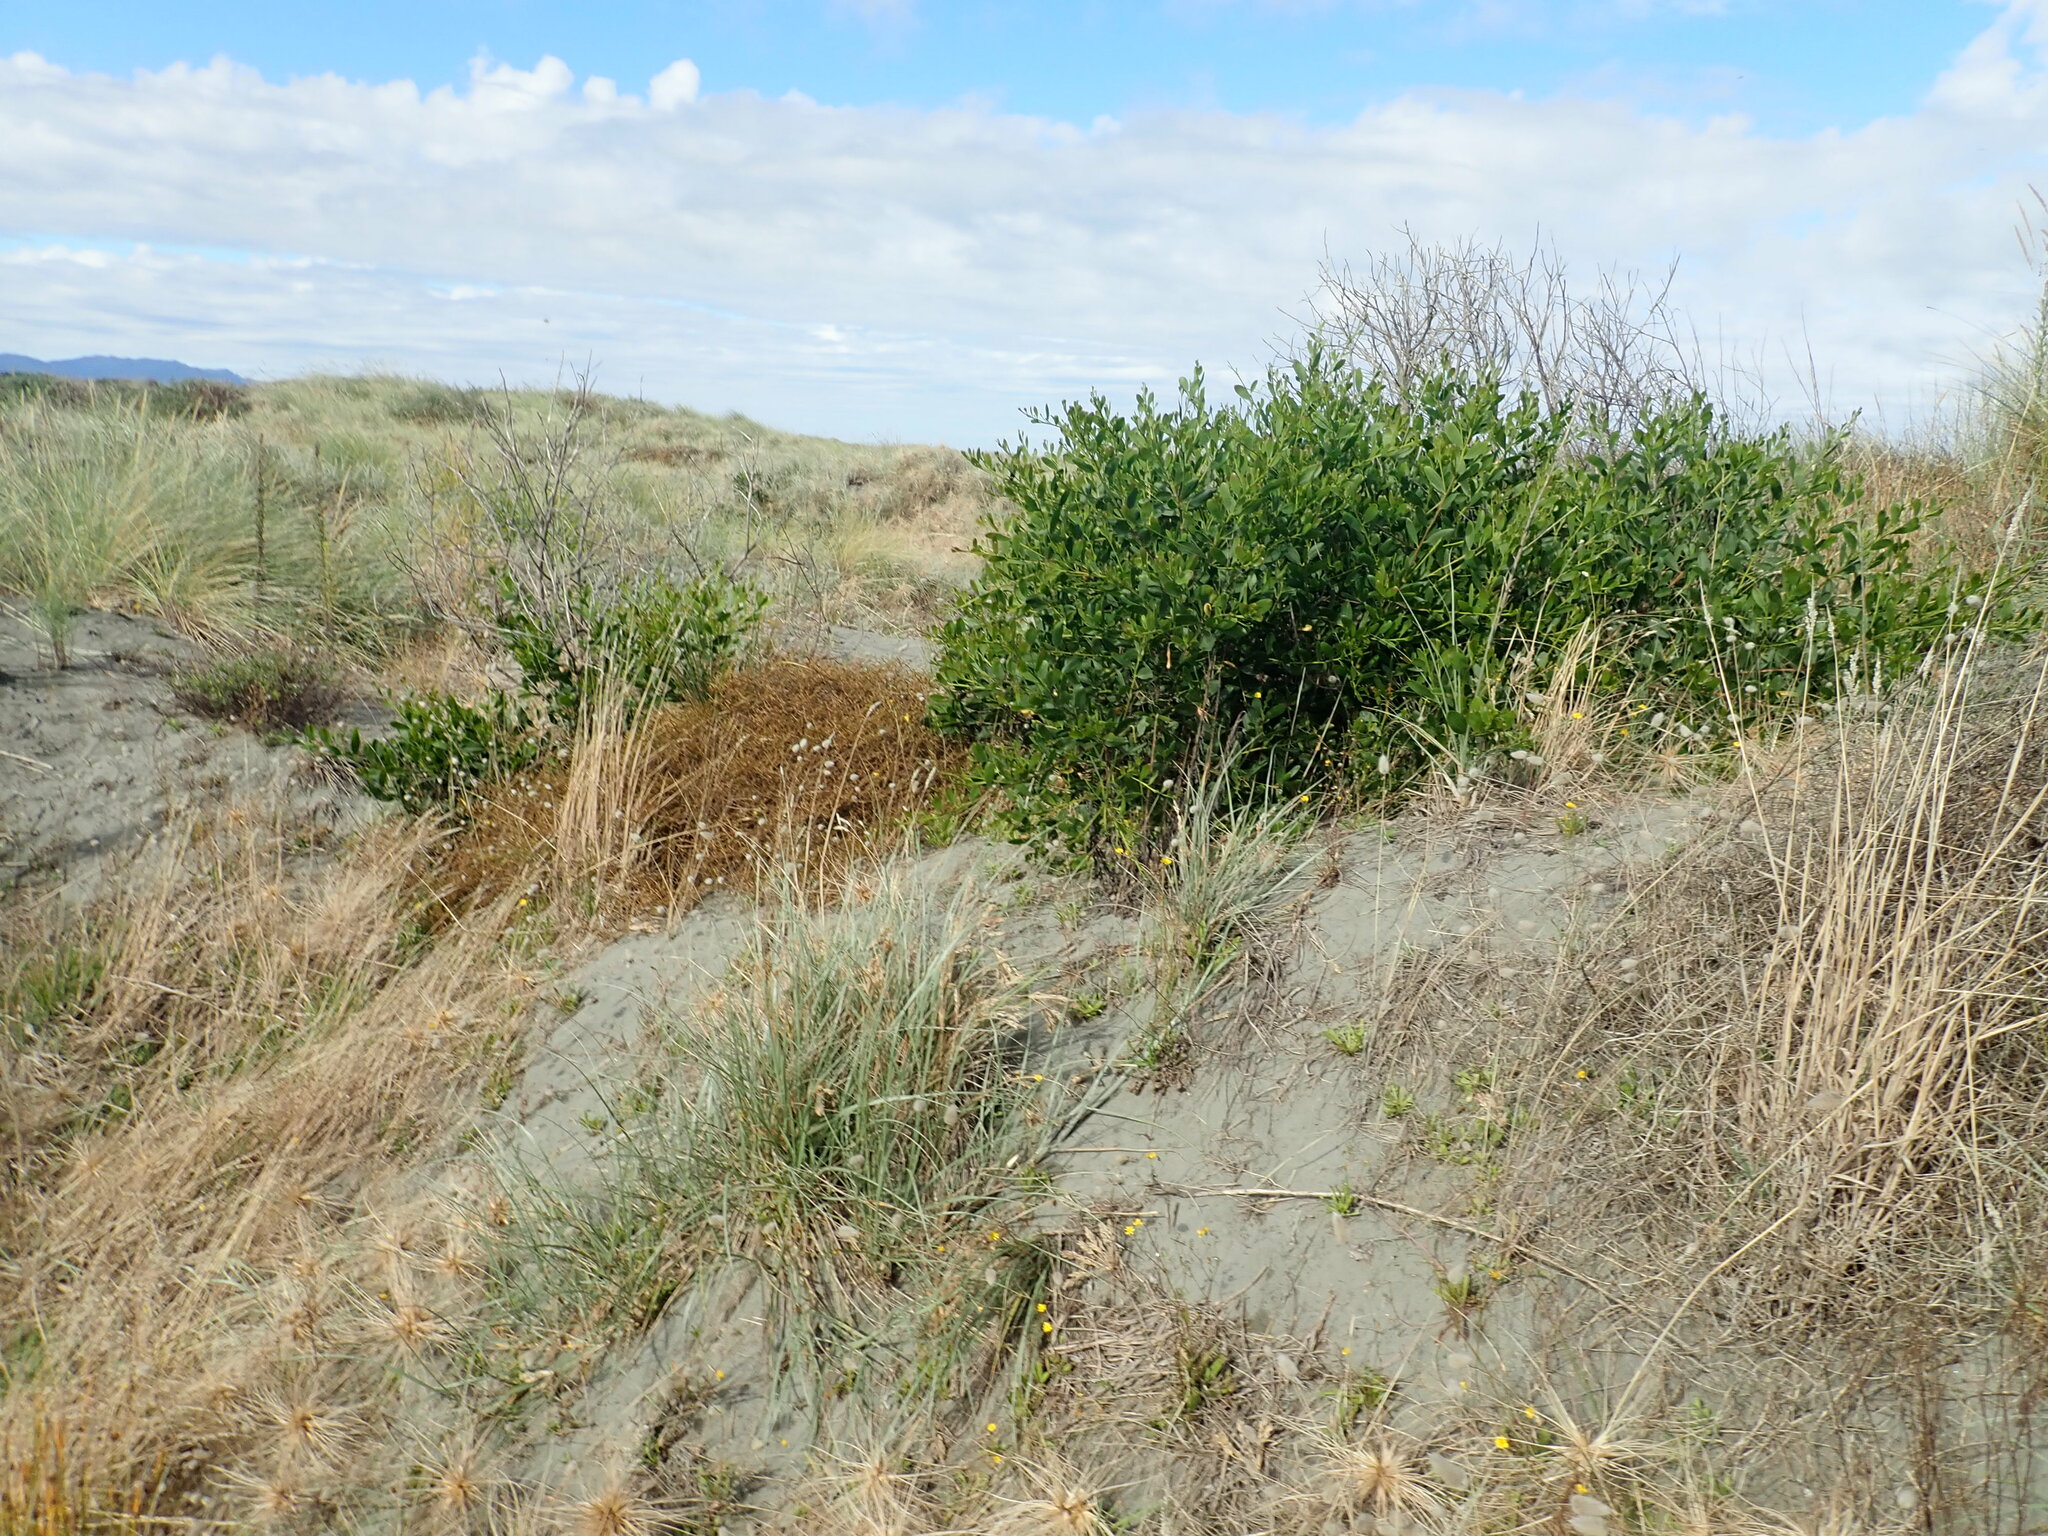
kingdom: Plantae
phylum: Tracheophyta
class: Magnoliopsida
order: Fabales
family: Fabaceae
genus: Acacia
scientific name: Acacia longifolia
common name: Sydney golden wattle
